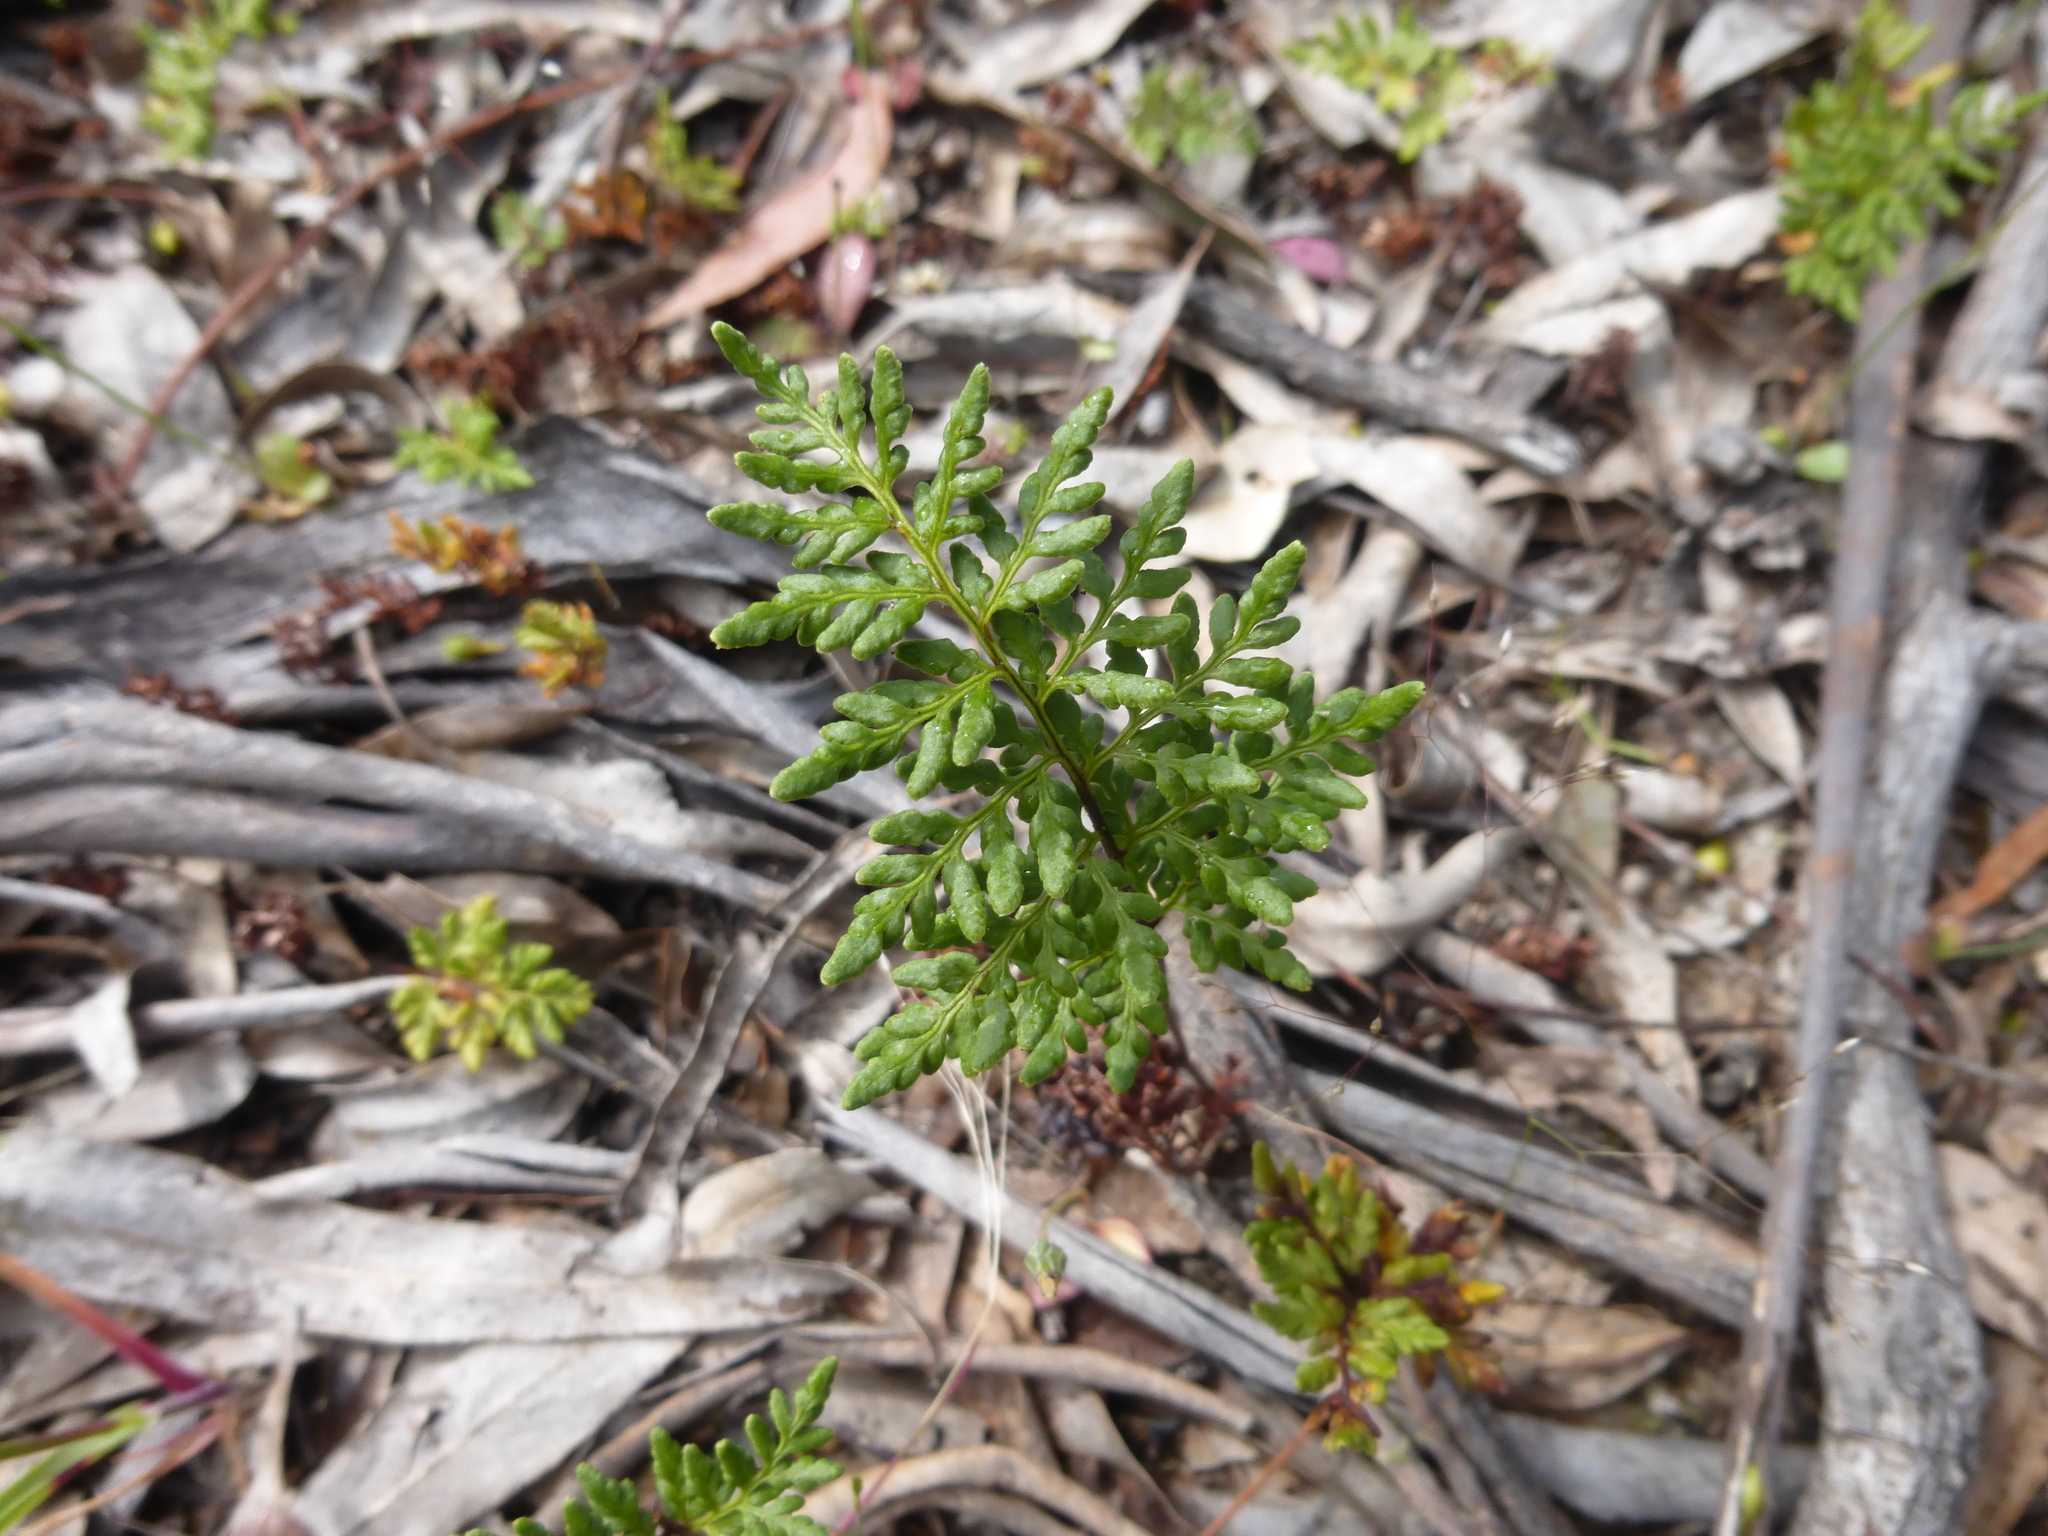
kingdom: Plantae
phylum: Tracheophyta
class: Polypodiopsida
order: Polypodiales
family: Pteridaceae
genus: Cheilanthes
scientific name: Cheilanthes austrotenuifolia
